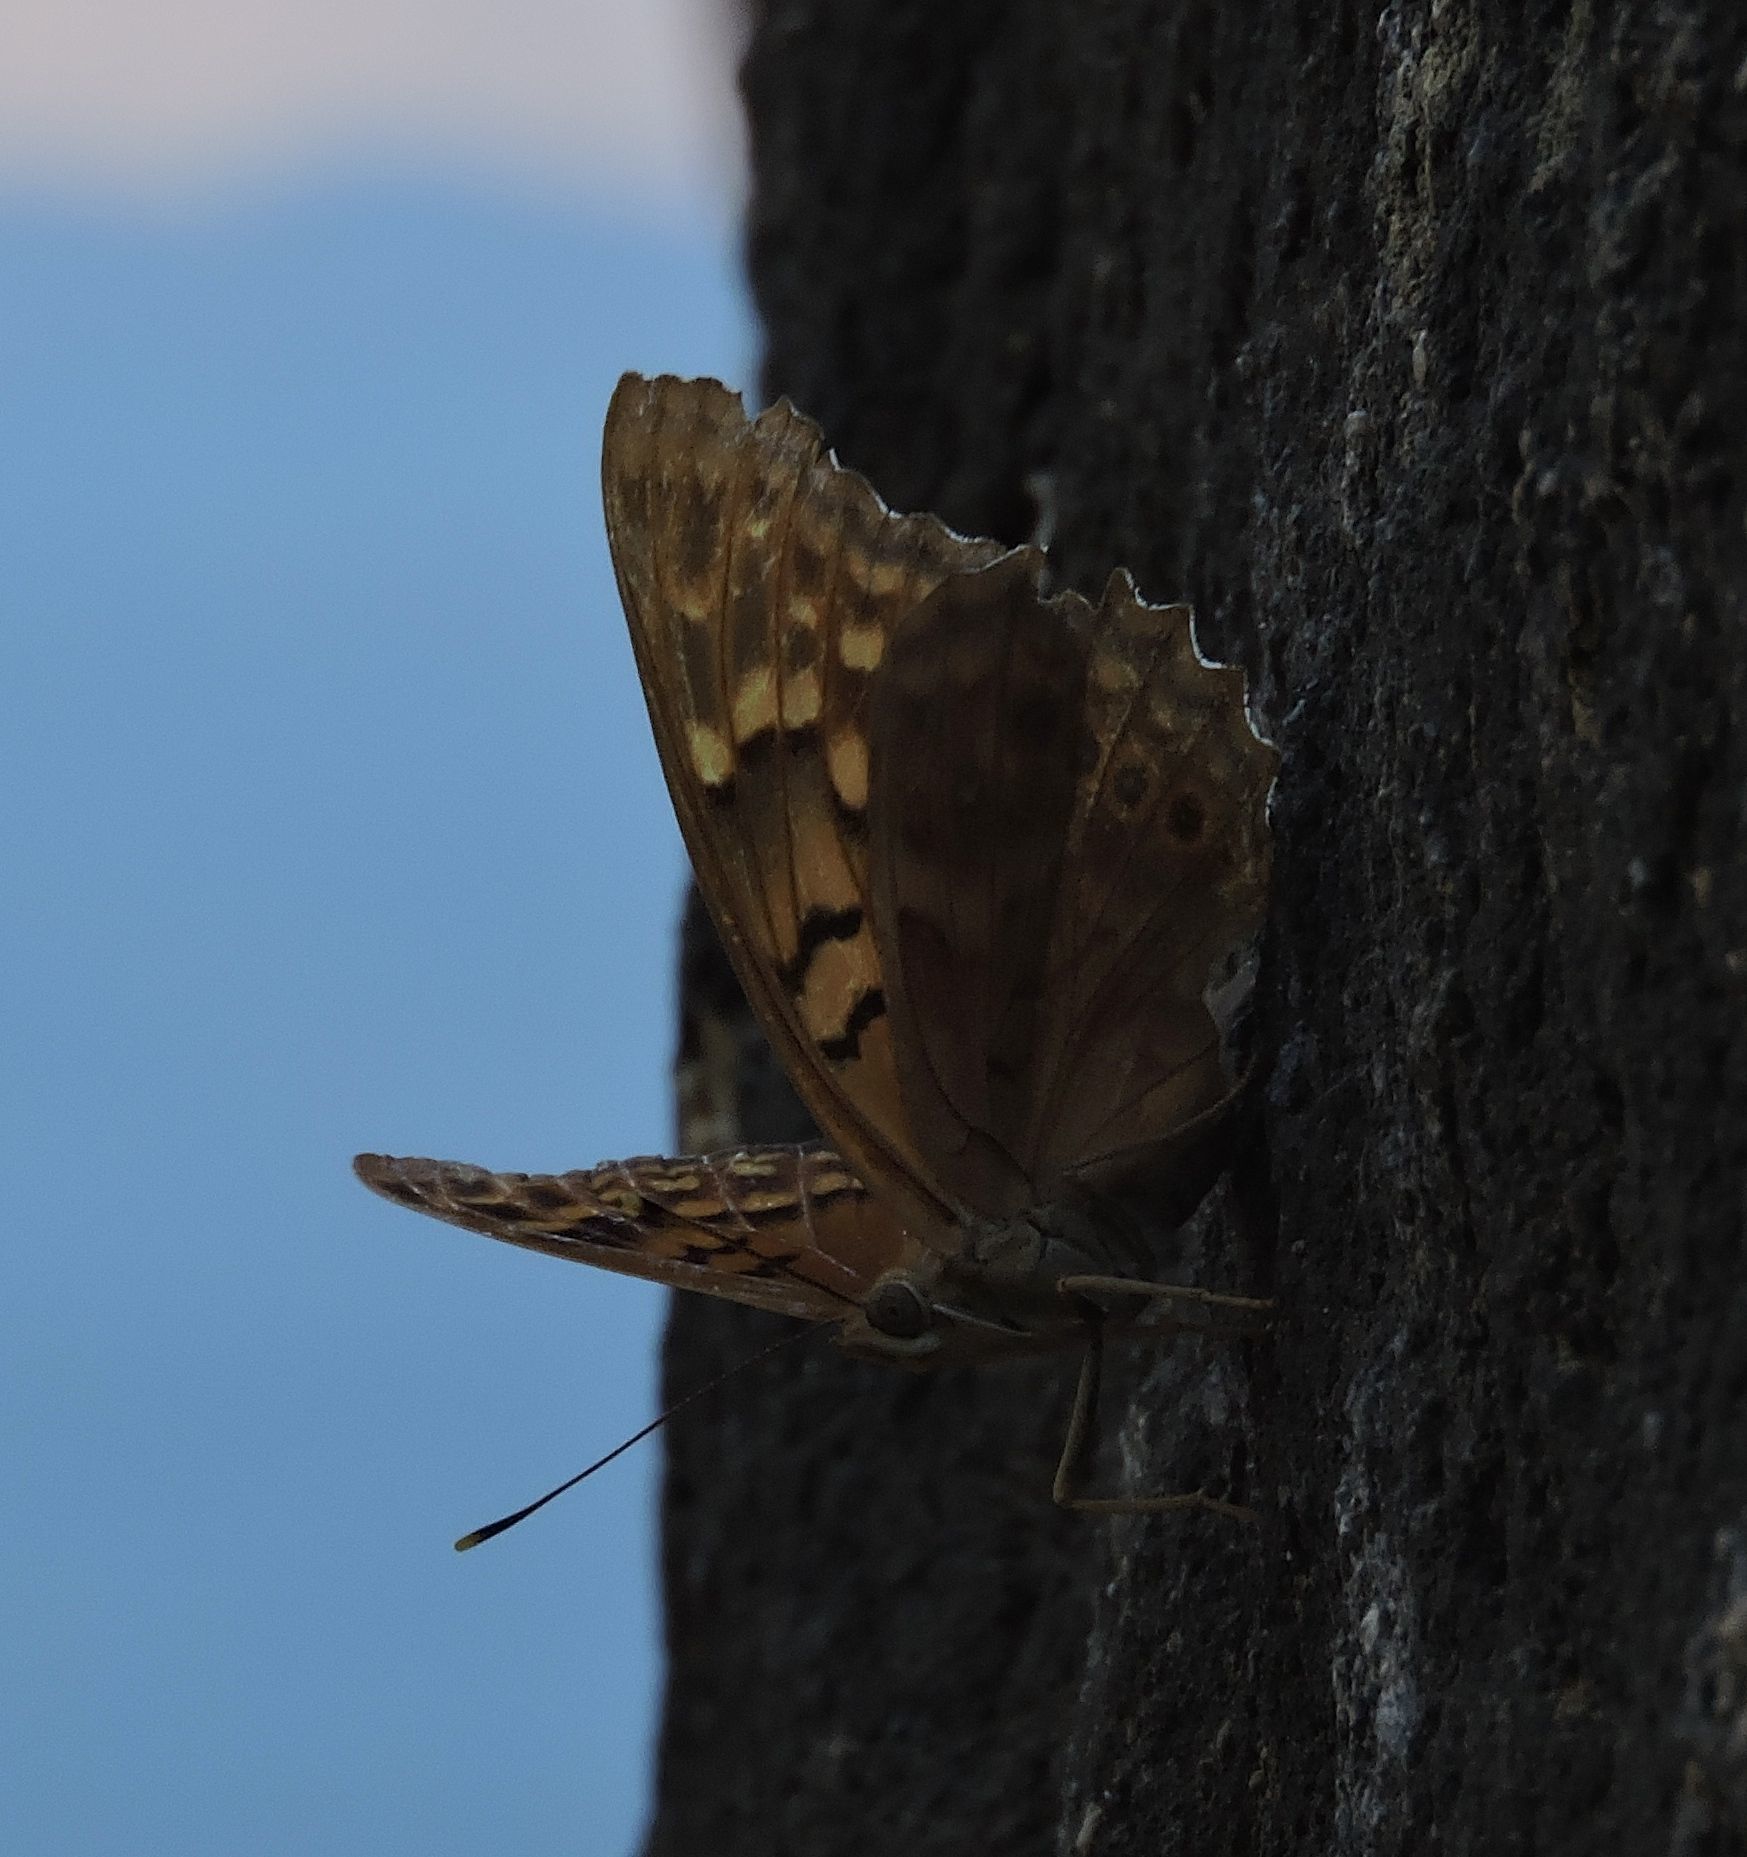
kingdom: Animalia
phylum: Arthropoda
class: Insecta
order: Lepidoptera
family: Nymphalidae
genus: Asterocampa
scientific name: Asterocampa clyton
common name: Tawny emperor
